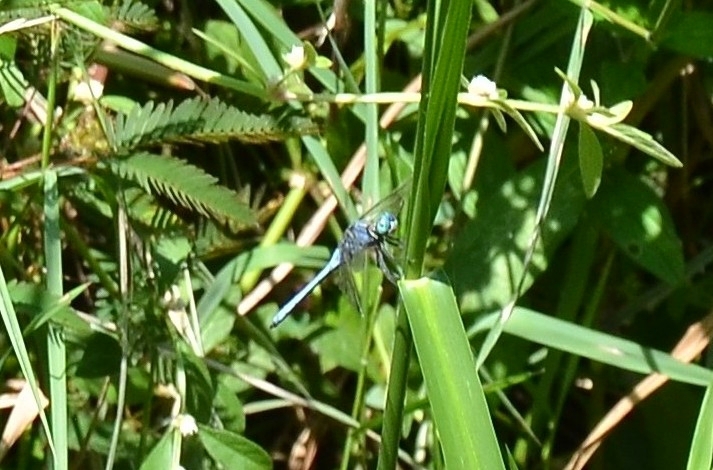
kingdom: Animalia
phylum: Arthropoda
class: Insecta
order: Odonata
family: Libellulidae
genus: Orthetrum
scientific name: Orthetrum luzonicum
